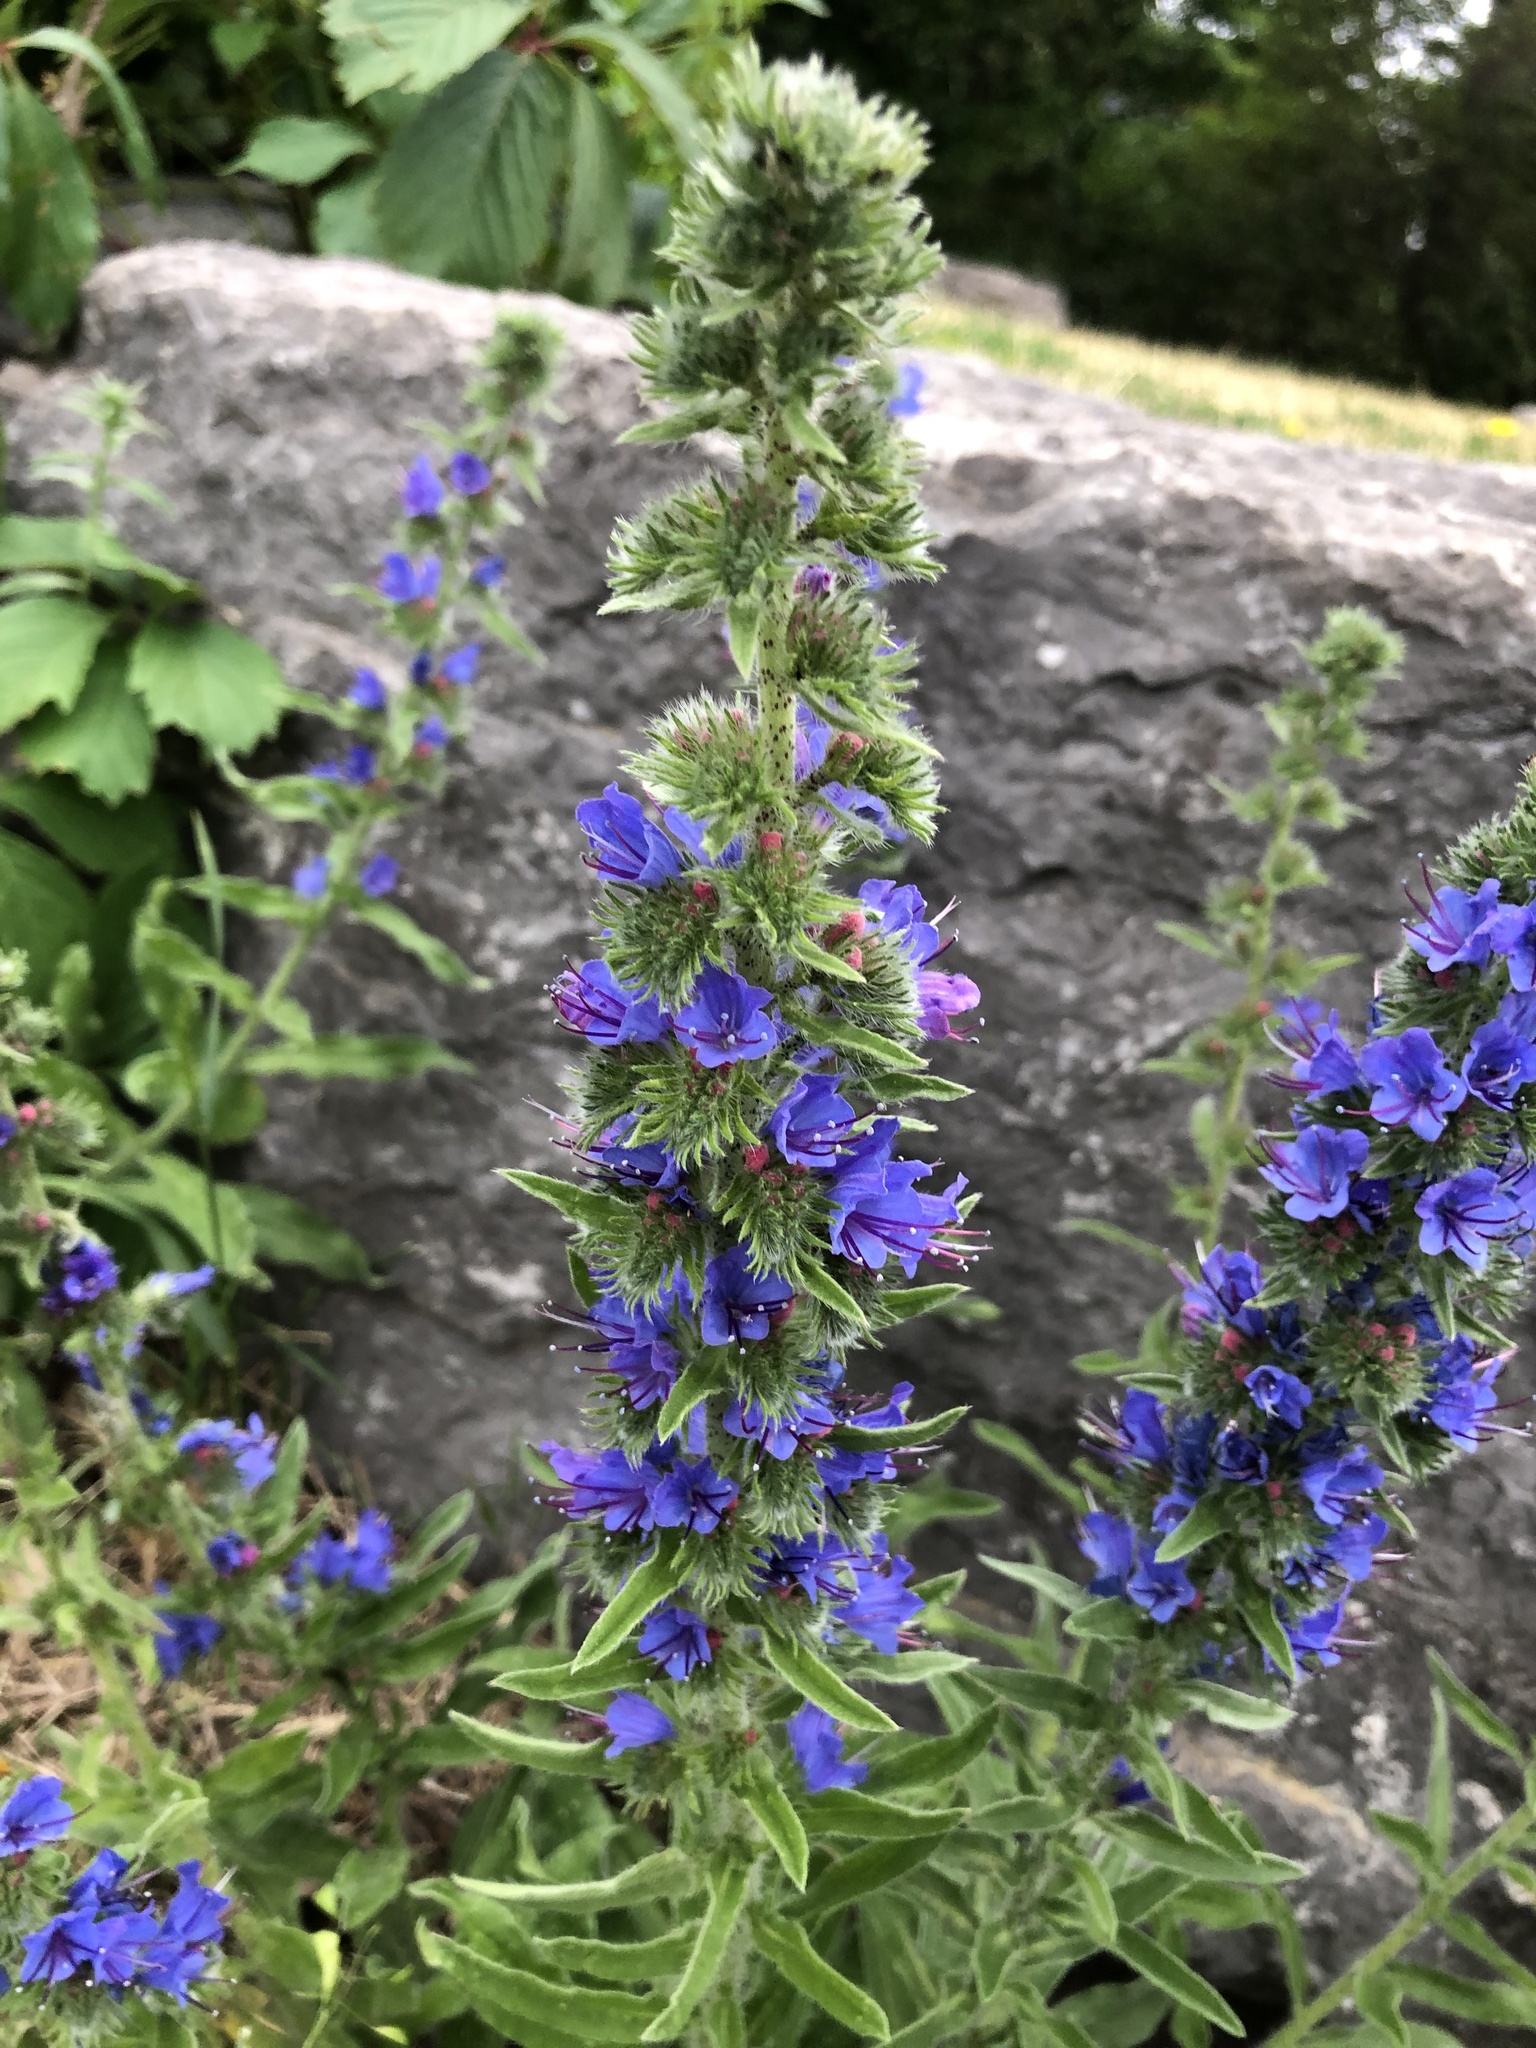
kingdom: Plantae
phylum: Tracheophyta
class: Magnoliopsida
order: Boraginales
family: Boraginaceae
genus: Echium
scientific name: Echium vulgare
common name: Common viper's bugloss
